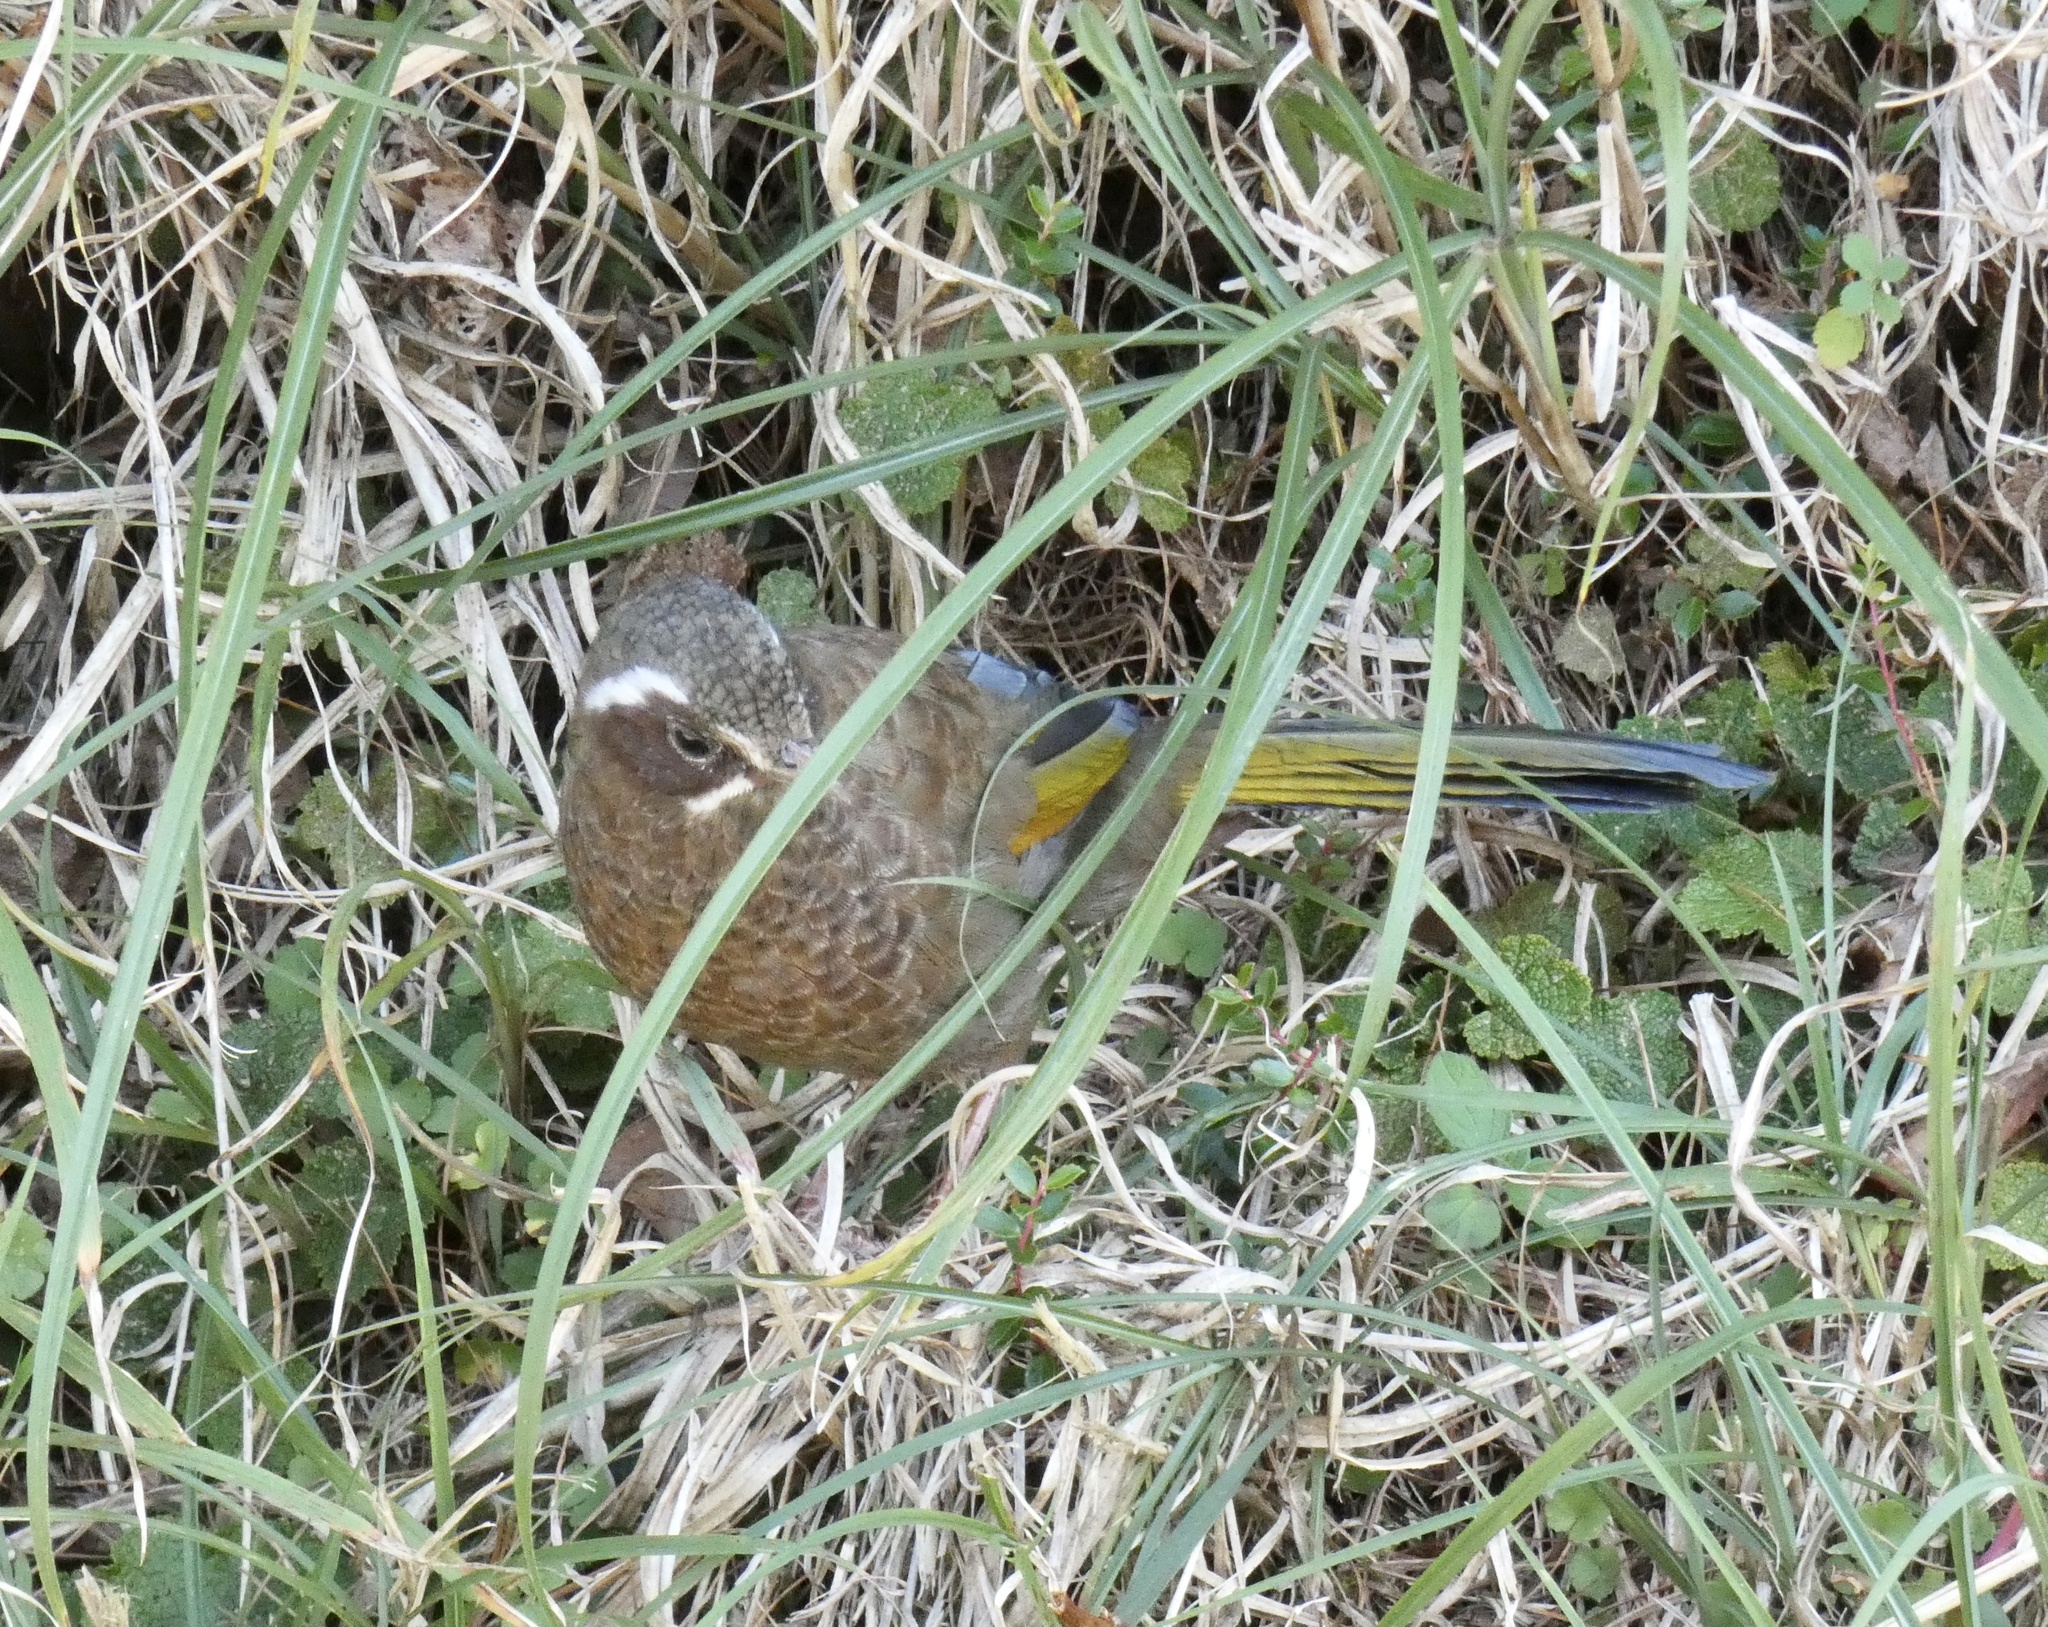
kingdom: Animalia
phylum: Chordata
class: Aves
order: Passeriformes
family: Leiothrichidae
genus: Trochalopteron
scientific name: Trochalopteron morrisonianum
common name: White-whiskered laughingthrush
